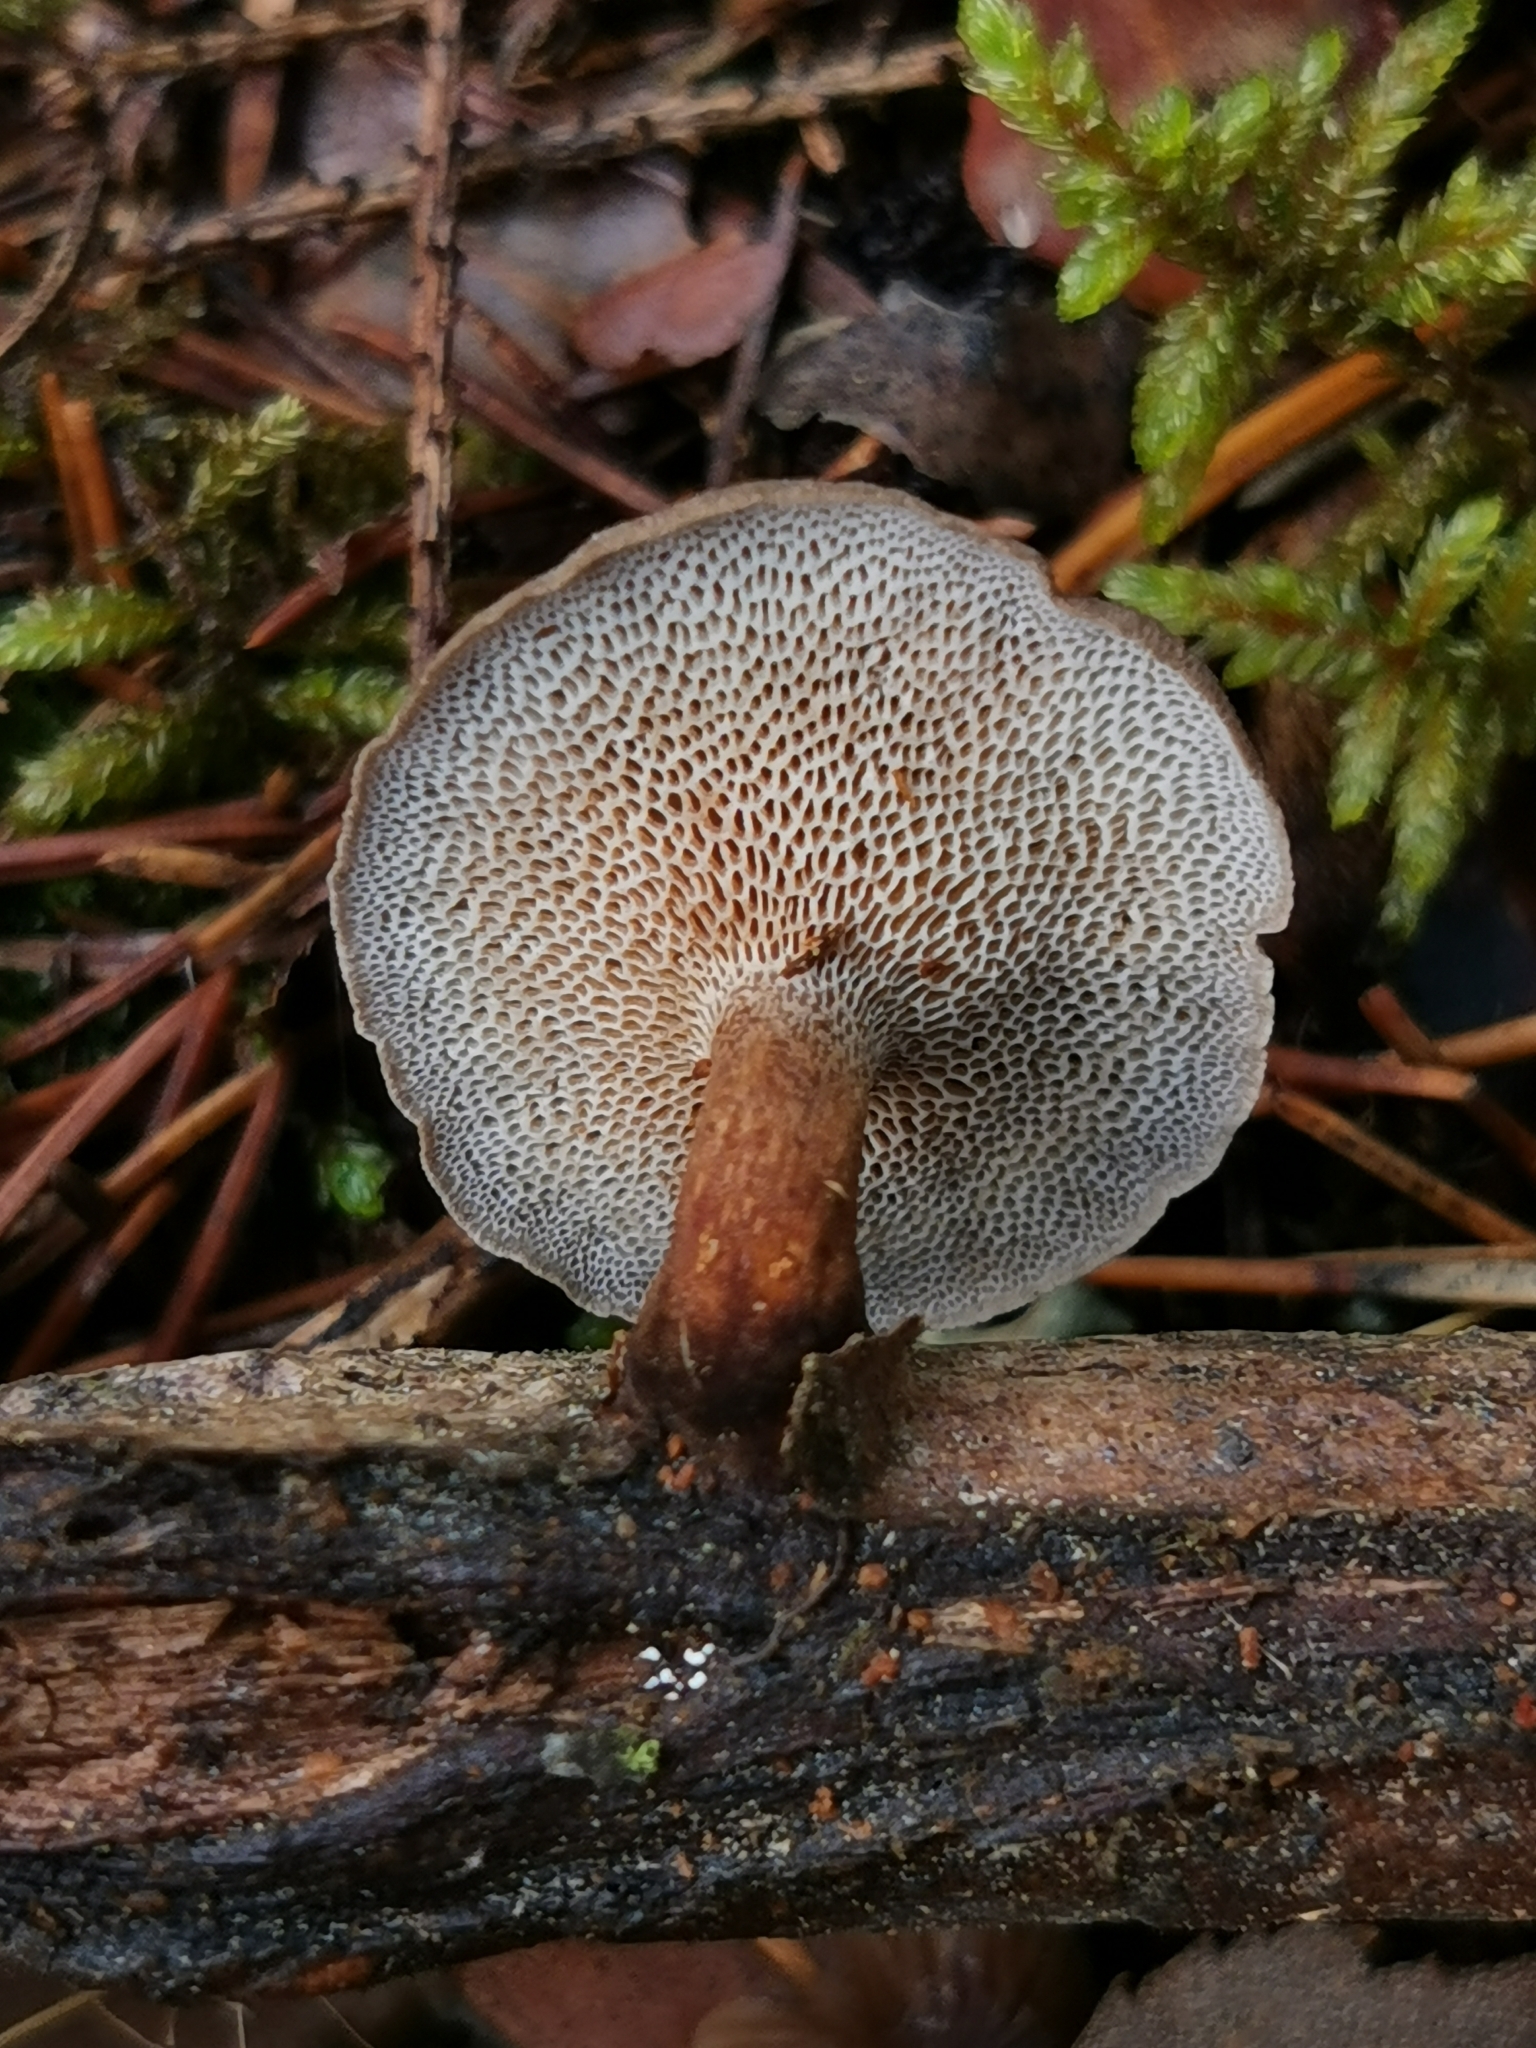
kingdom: Fungi
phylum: Basidiomycota
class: Agaricomycetes
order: Polyporales
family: Polyporaceae
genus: Lentinus
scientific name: Lentinus brumalis
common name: Winter polypore
